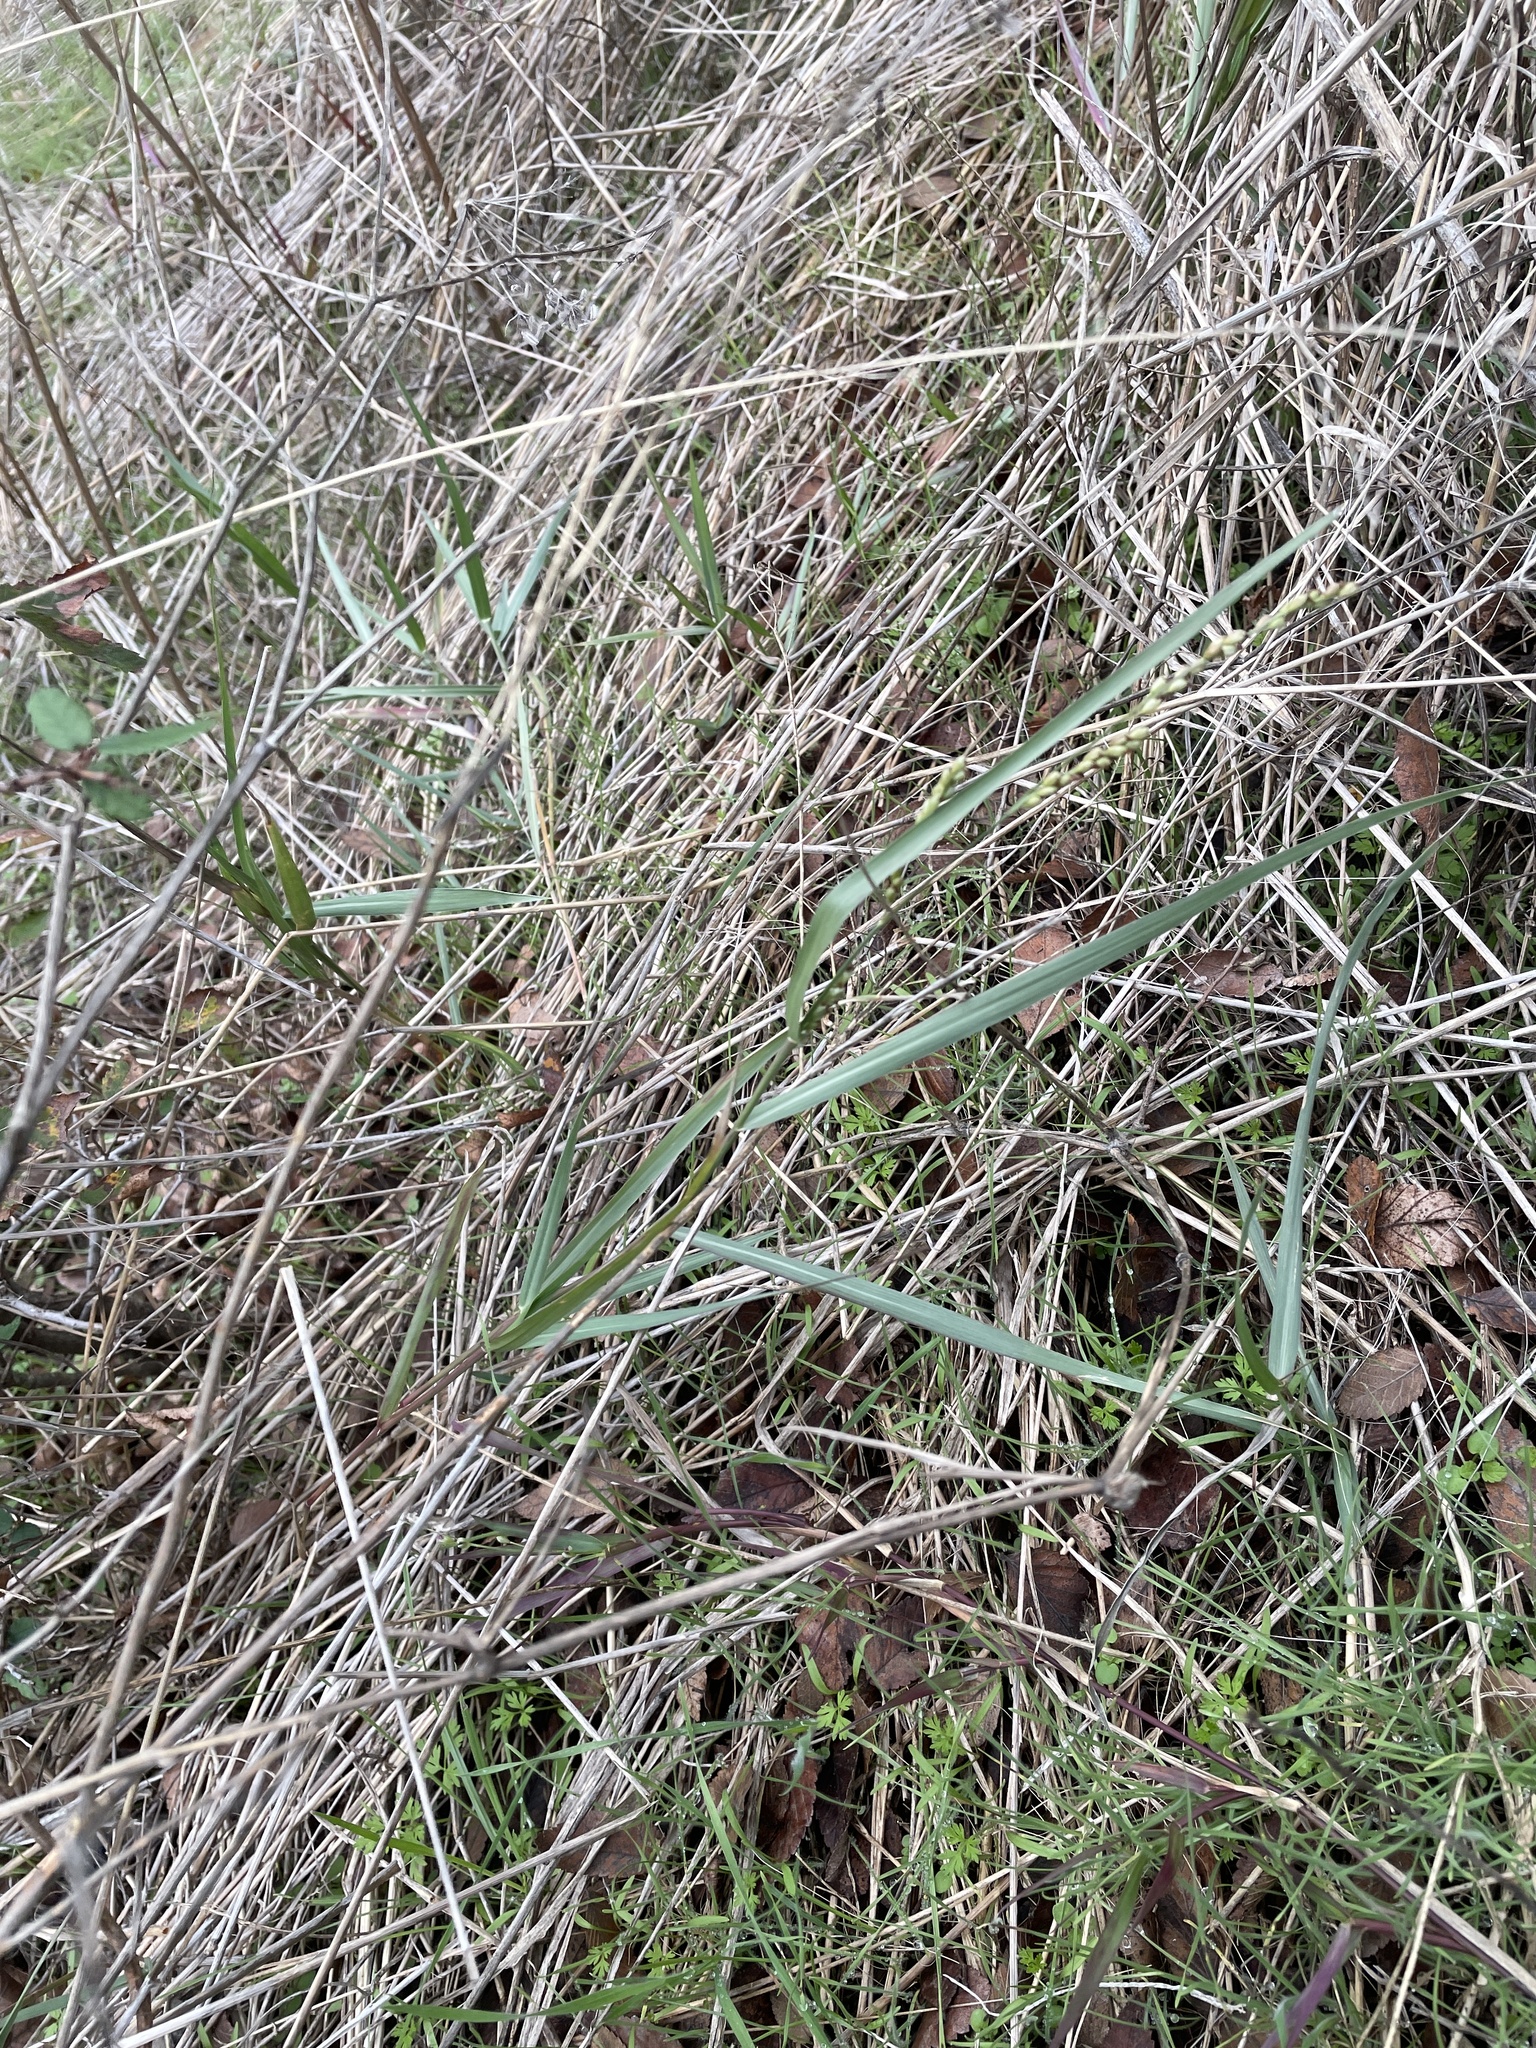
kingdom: Plantae
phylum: Tracheophyta
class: Liliopsida
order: Poales
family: Poaceae
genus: Hopia
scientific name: Hopia obtusa
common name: Vine-mesquite
